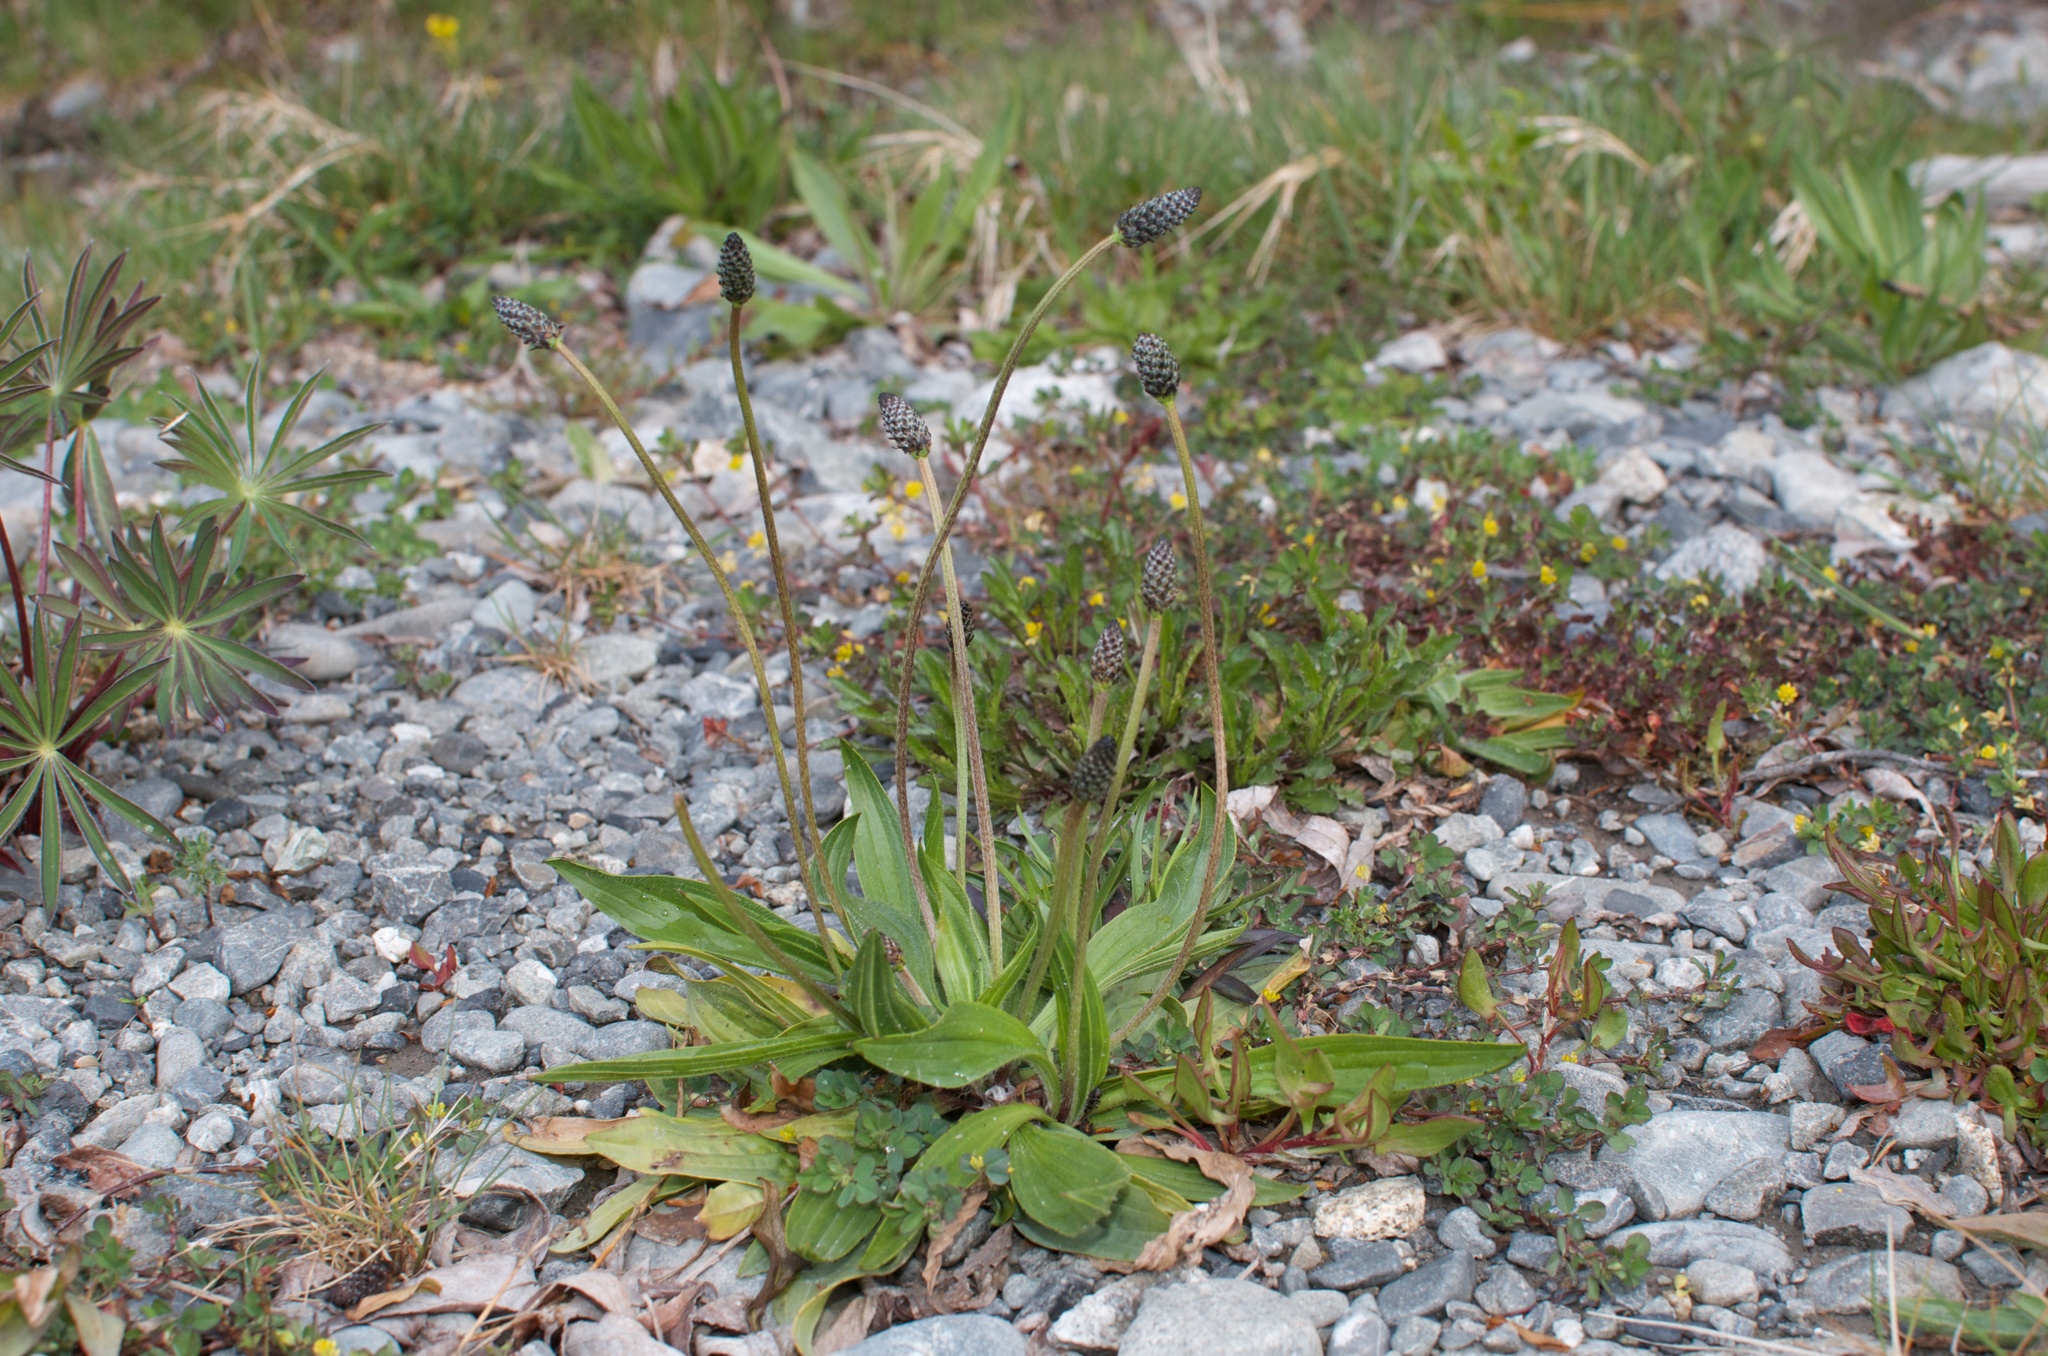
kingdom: Plantae
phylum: Tracheophyta
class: Magnoliopsida
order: Lamiales
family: Plantaginaceae
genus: Plantago
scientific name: Plantago lanceolata
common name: Ribwort plantain
